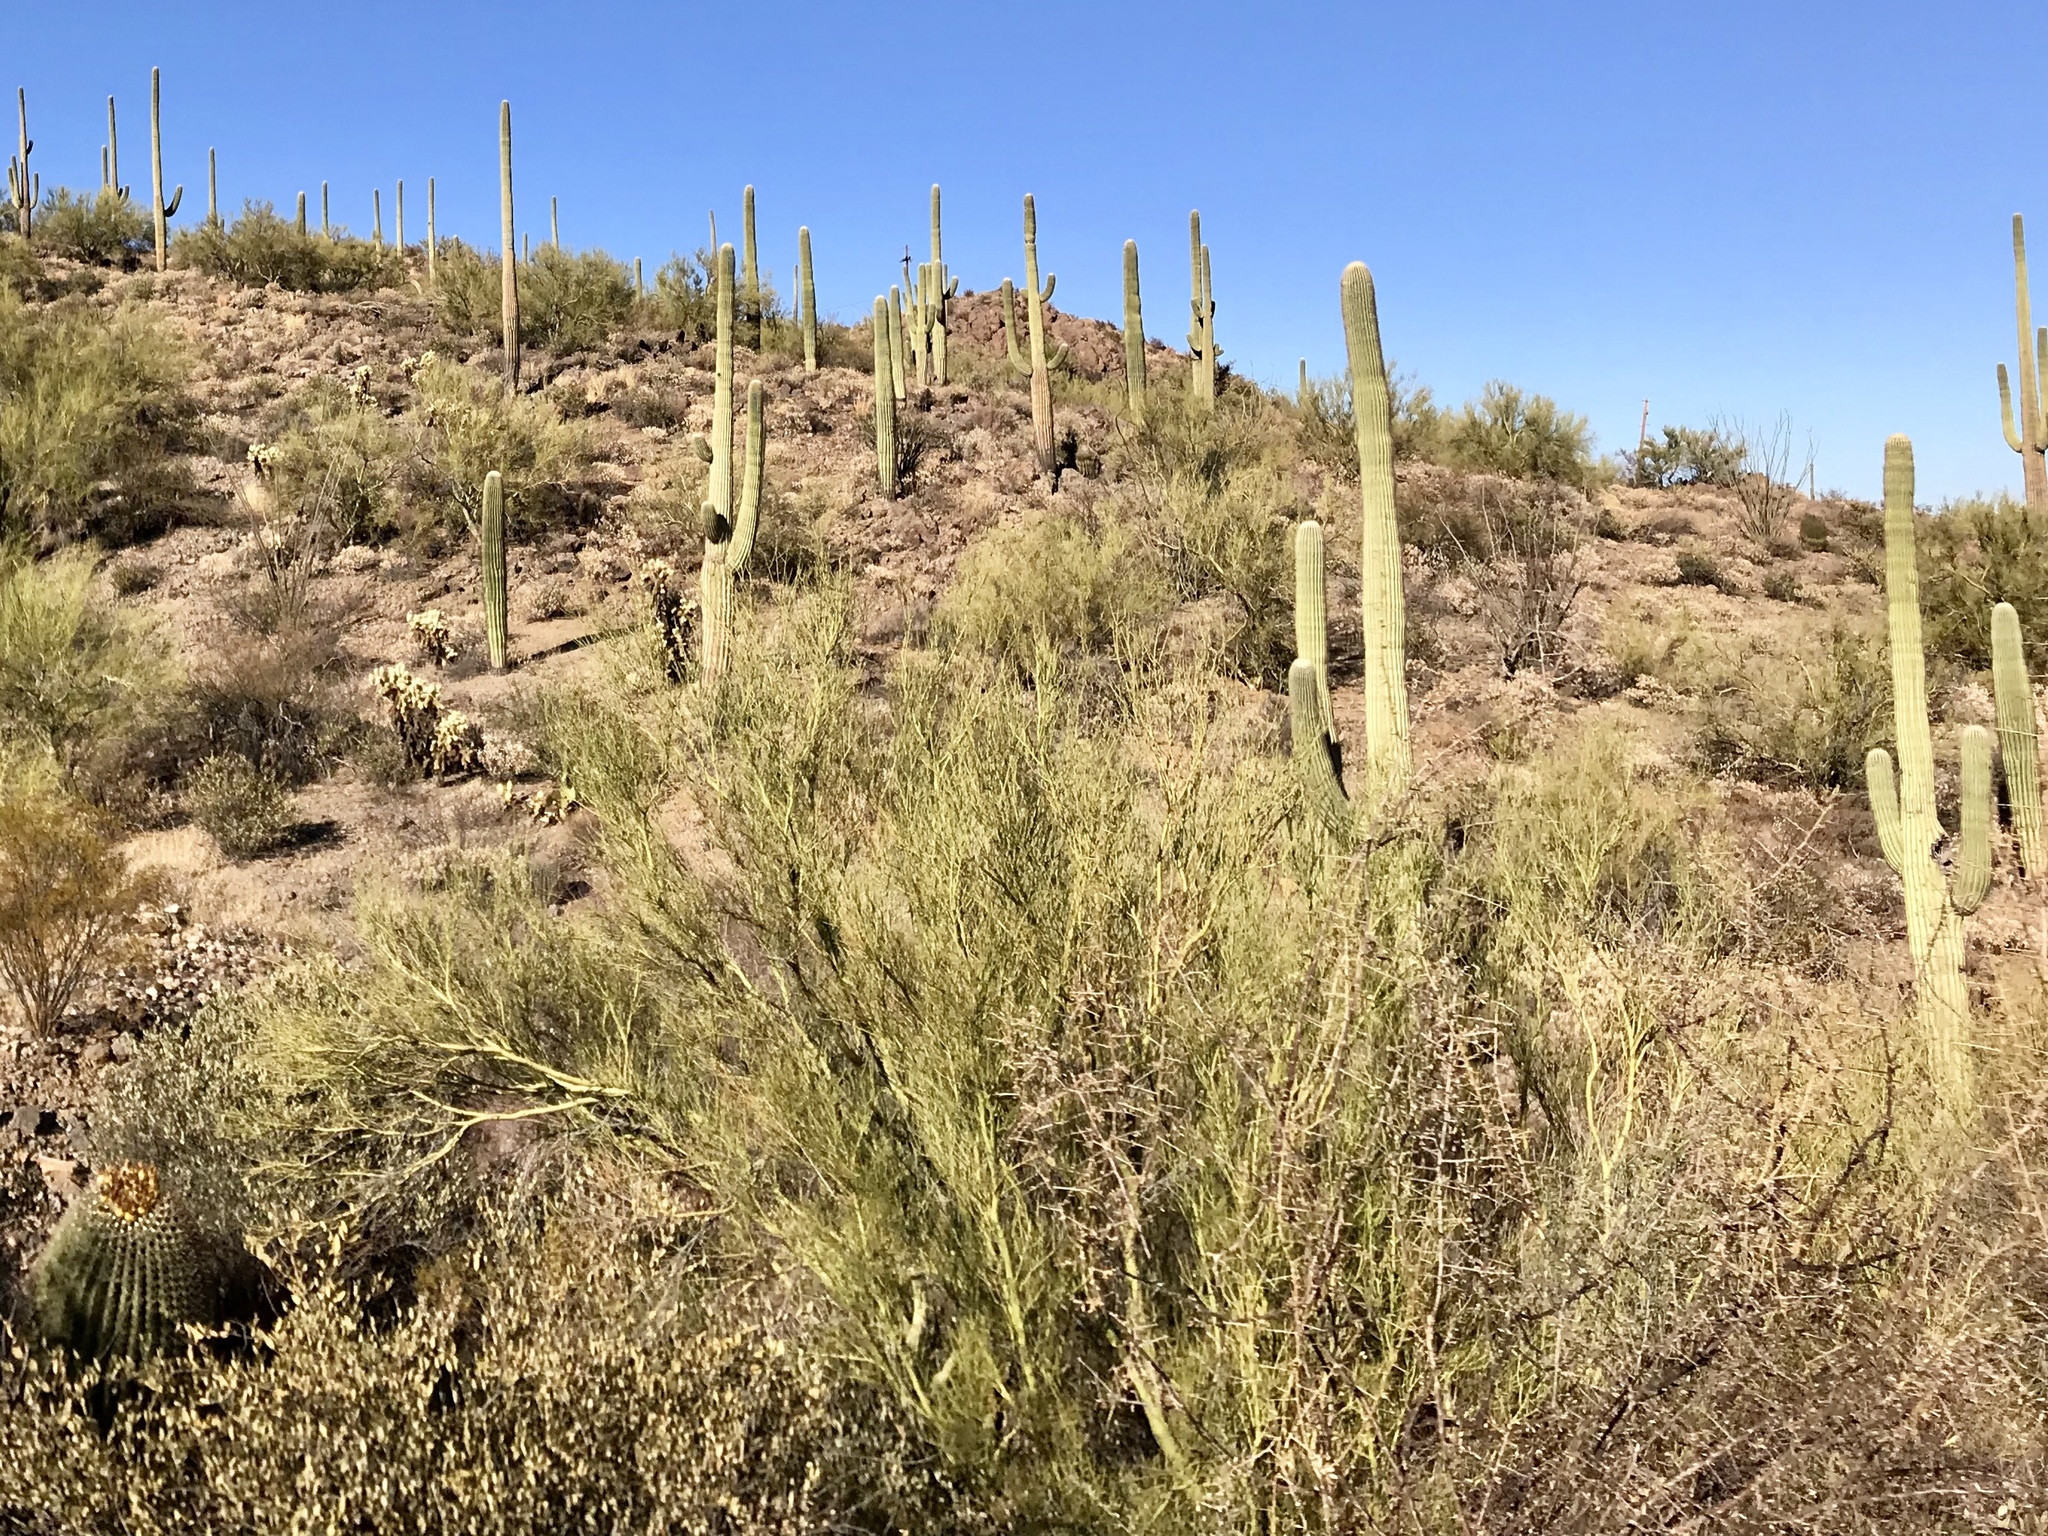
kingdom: Plantae
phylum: Tracheophyta
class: Magnoliopsida
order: Fabales
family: Fabaceae
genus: Parkinsonia
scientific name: Parkinsonia microphylla
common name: Yellow paloverde
